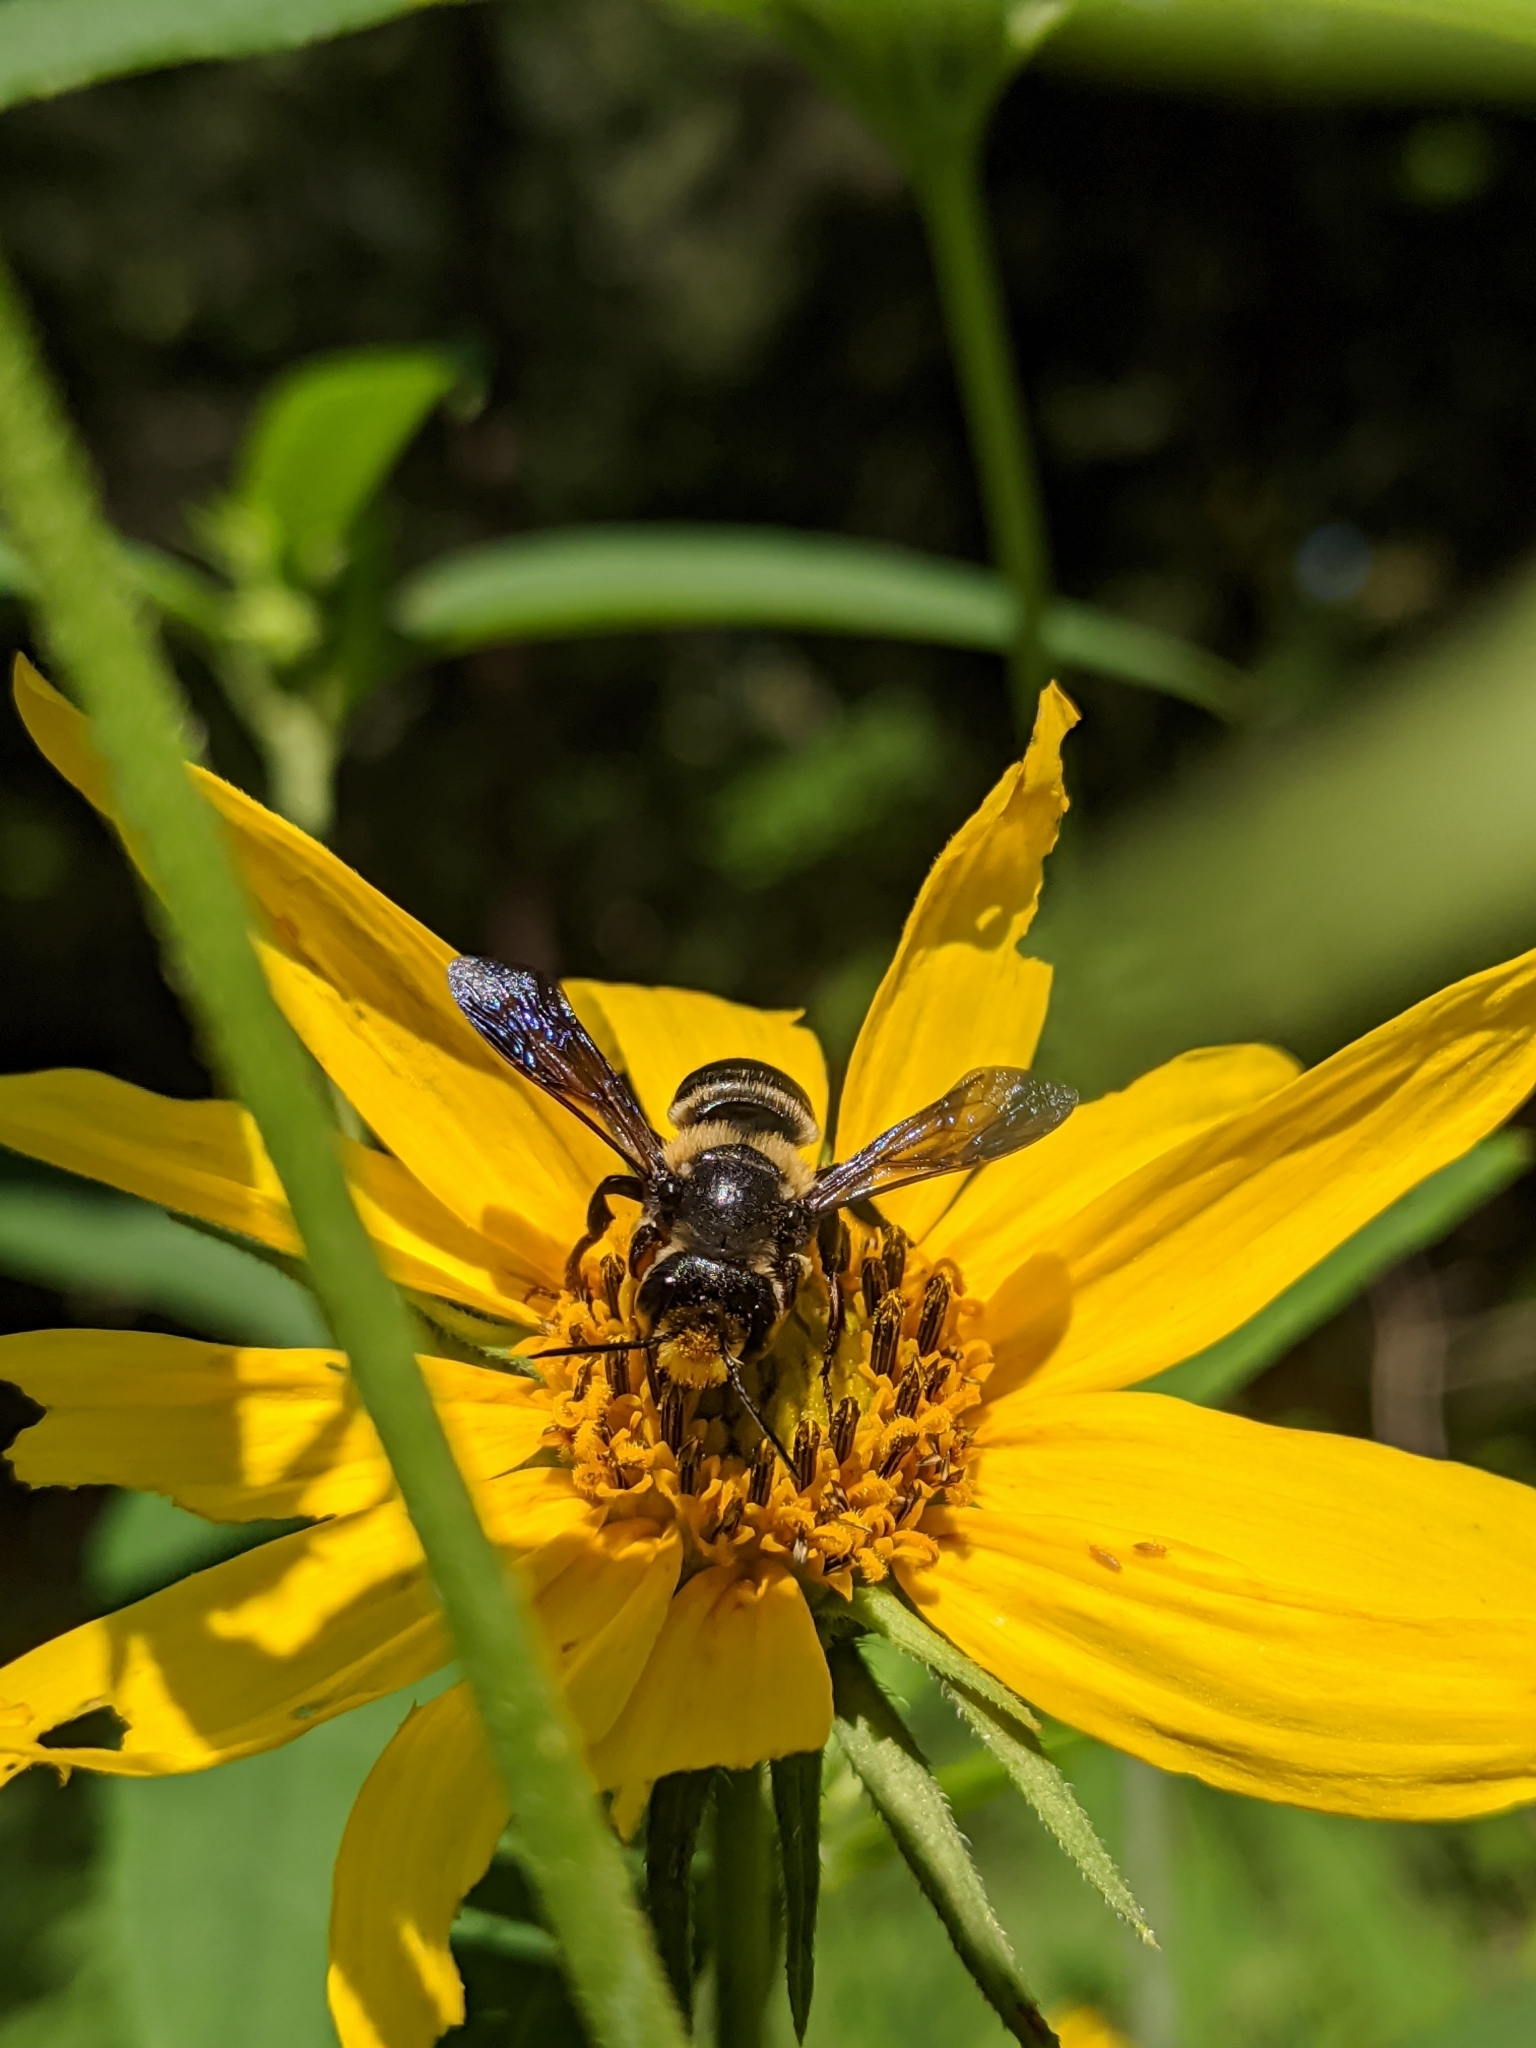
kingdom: Animalia
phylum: Arthropoda
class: Insecta
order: Hymenoptera
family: Megachilidae
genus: Megachile
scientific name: Megachile xylocopoides
